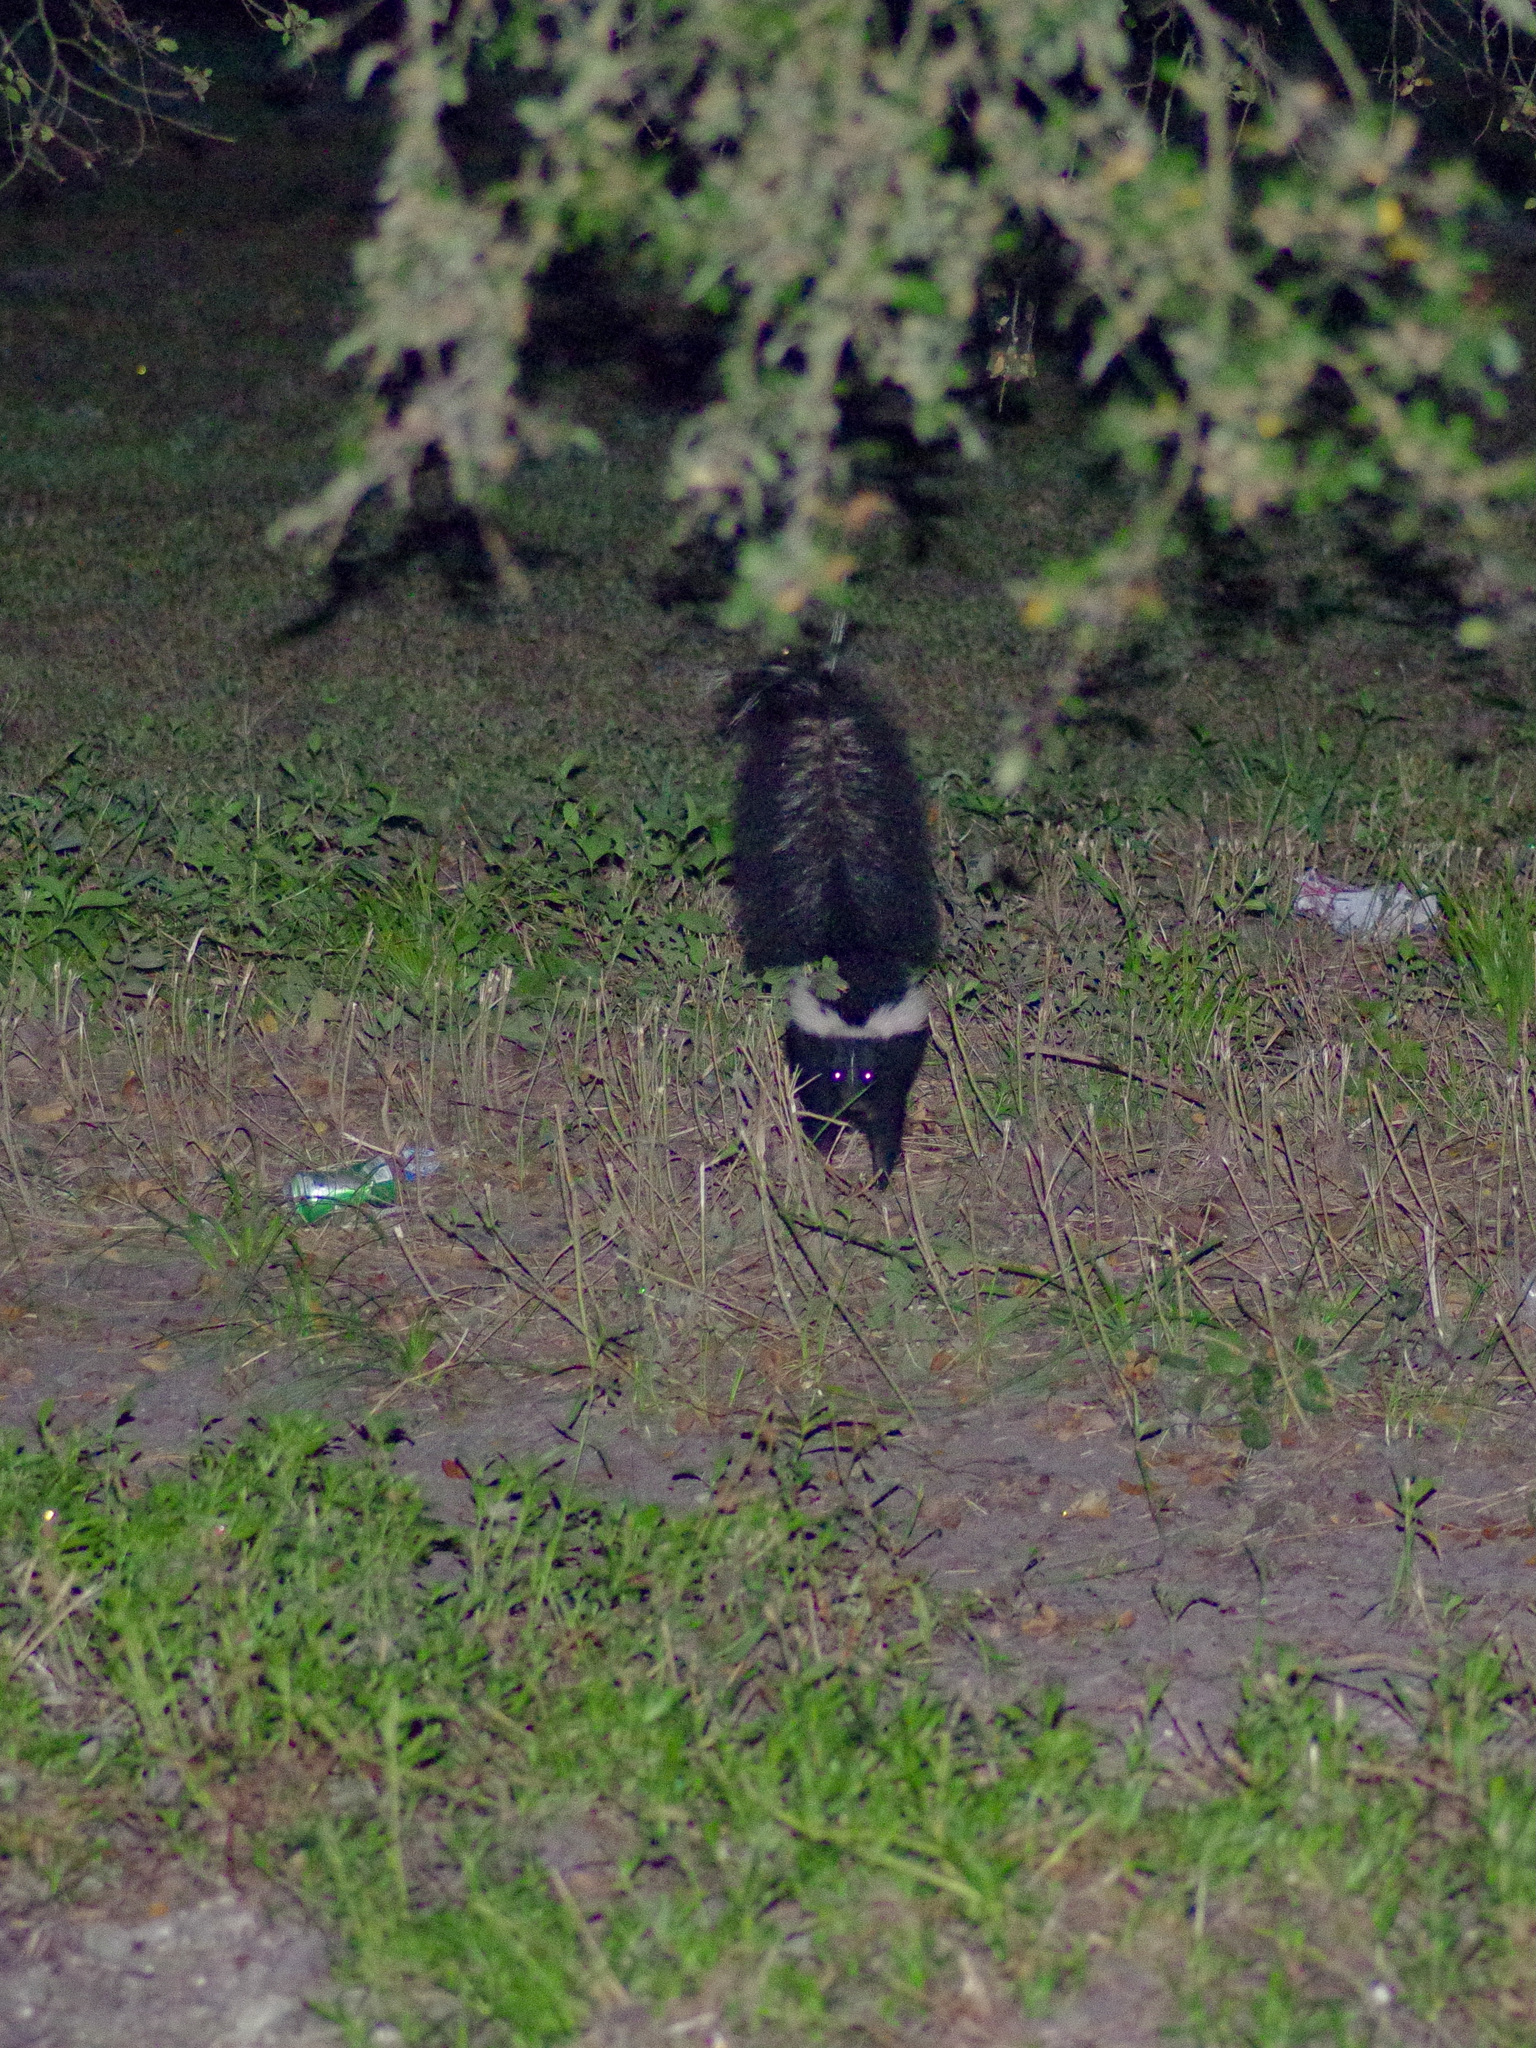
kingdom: Animalia
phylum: Chordata
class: Mammalia
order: Carnivora
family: Mephitidae
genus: Mephitis
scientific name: Mephitis mephitis
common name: Striped skunk
